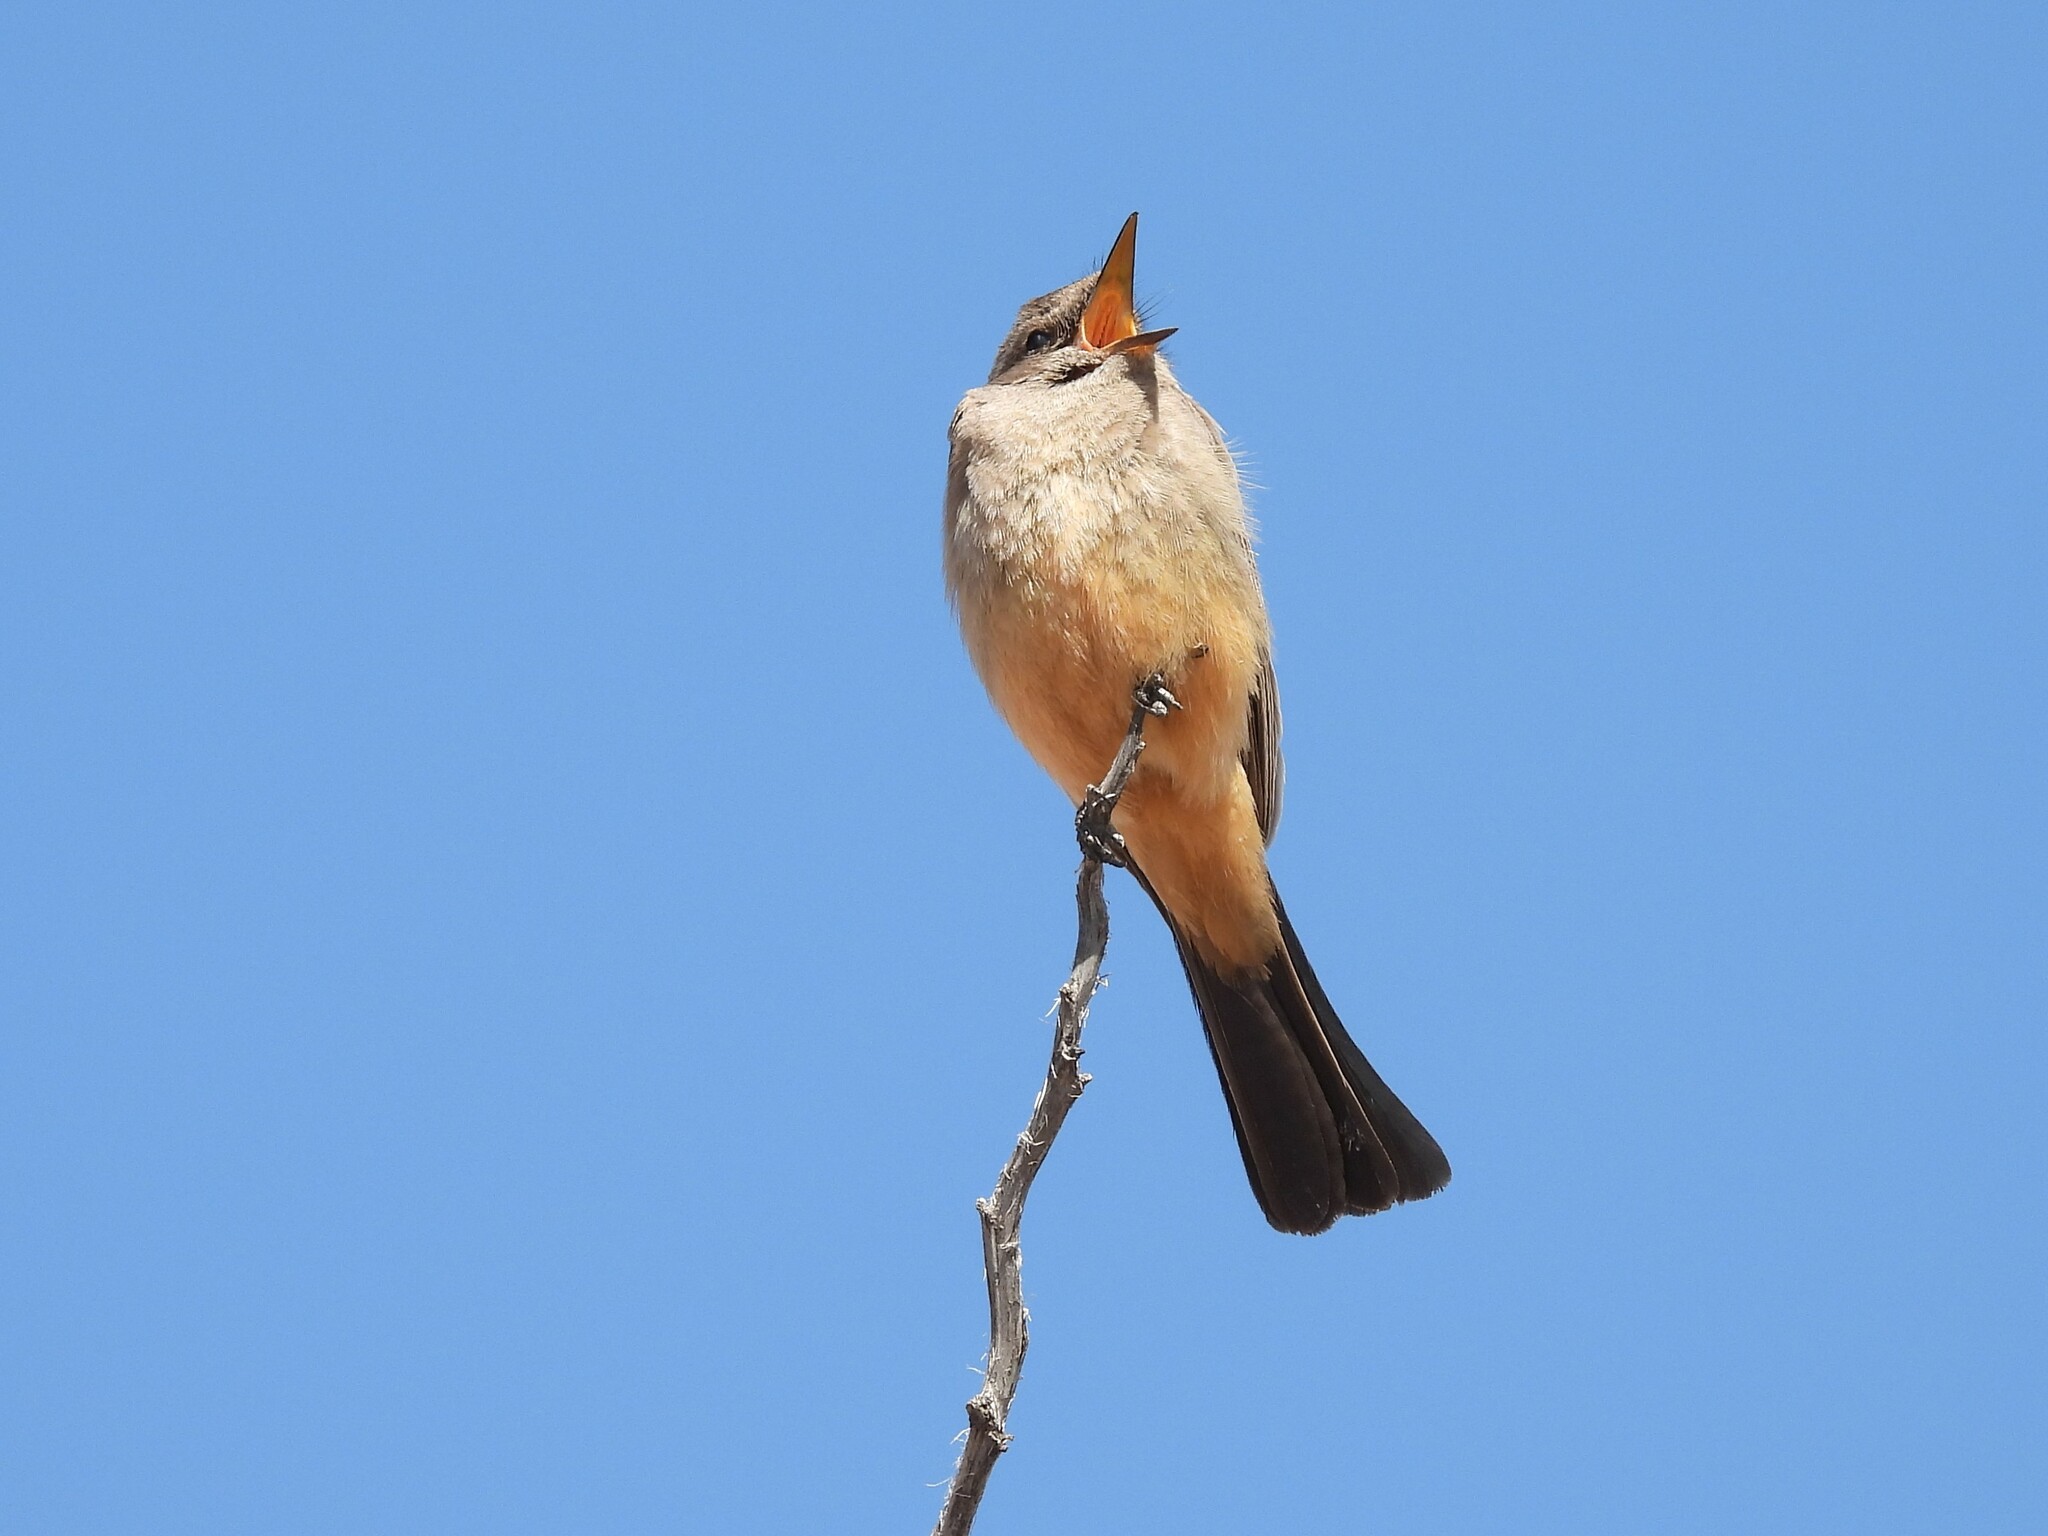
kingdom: Animalia
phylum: Chordata
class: Aves
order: Passeriformes
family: Tyrannidae
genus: Sayornis
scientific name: Sayornis saya
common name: Say's phoebe
